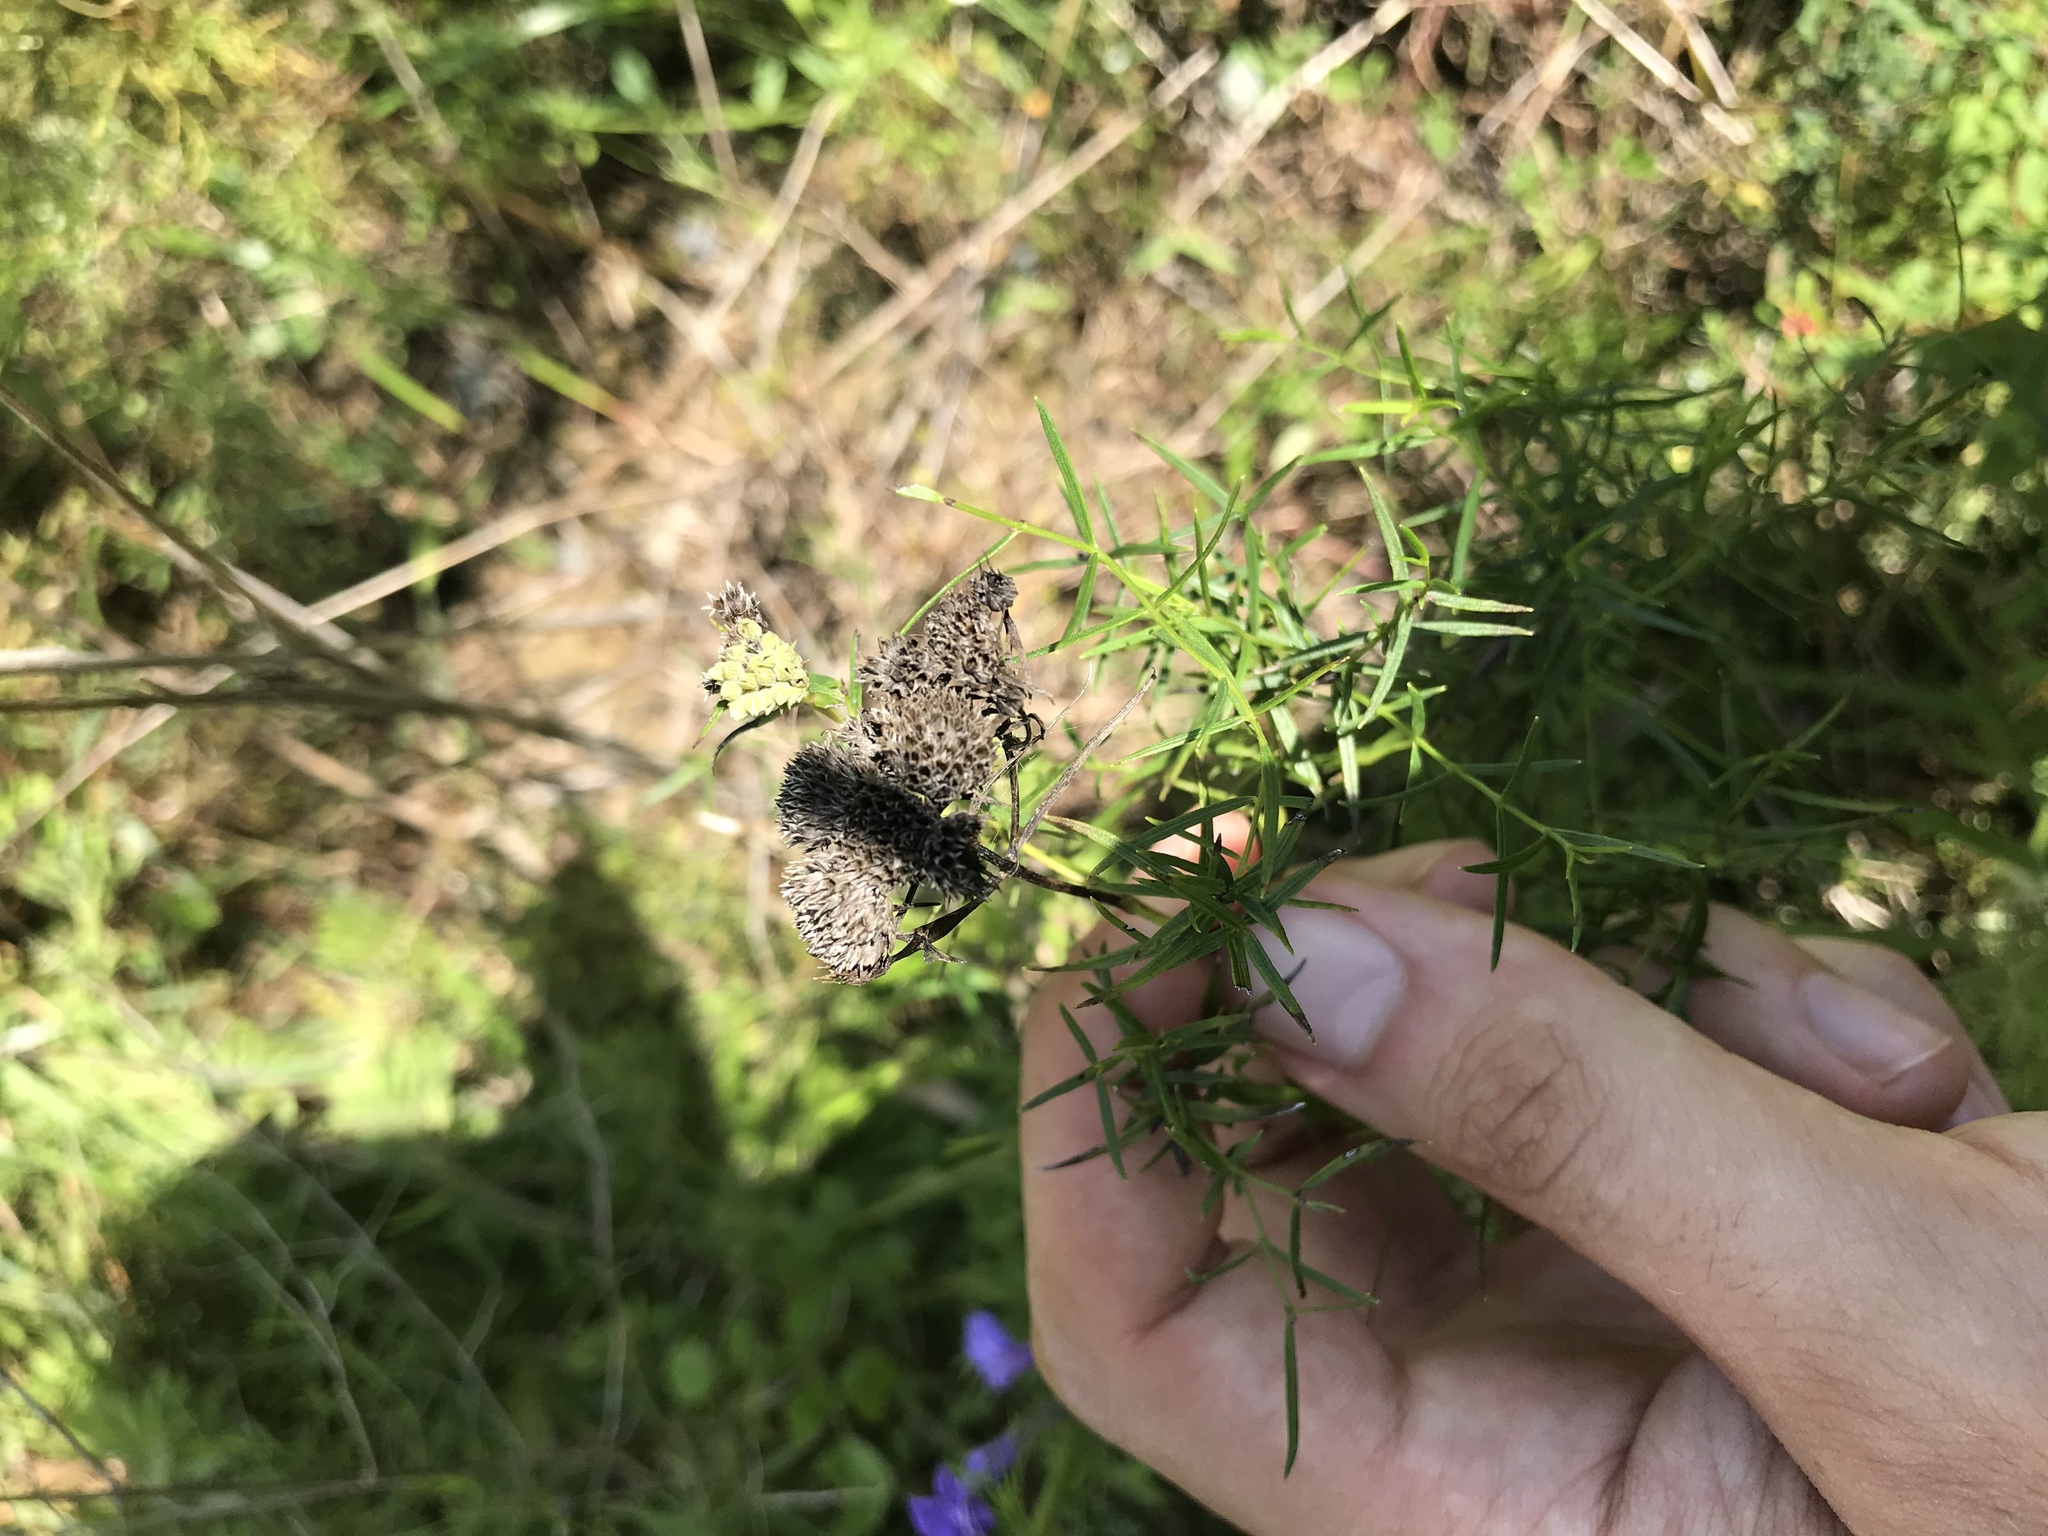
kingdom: Plantae
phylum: Tracheophyta
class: Magnoliopsida
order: Lamiales
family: Lamiaceae
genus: Pycnanthemum
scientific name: Pycnanthemum tenuifolium
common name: Narrow-leaf mountain-mint
